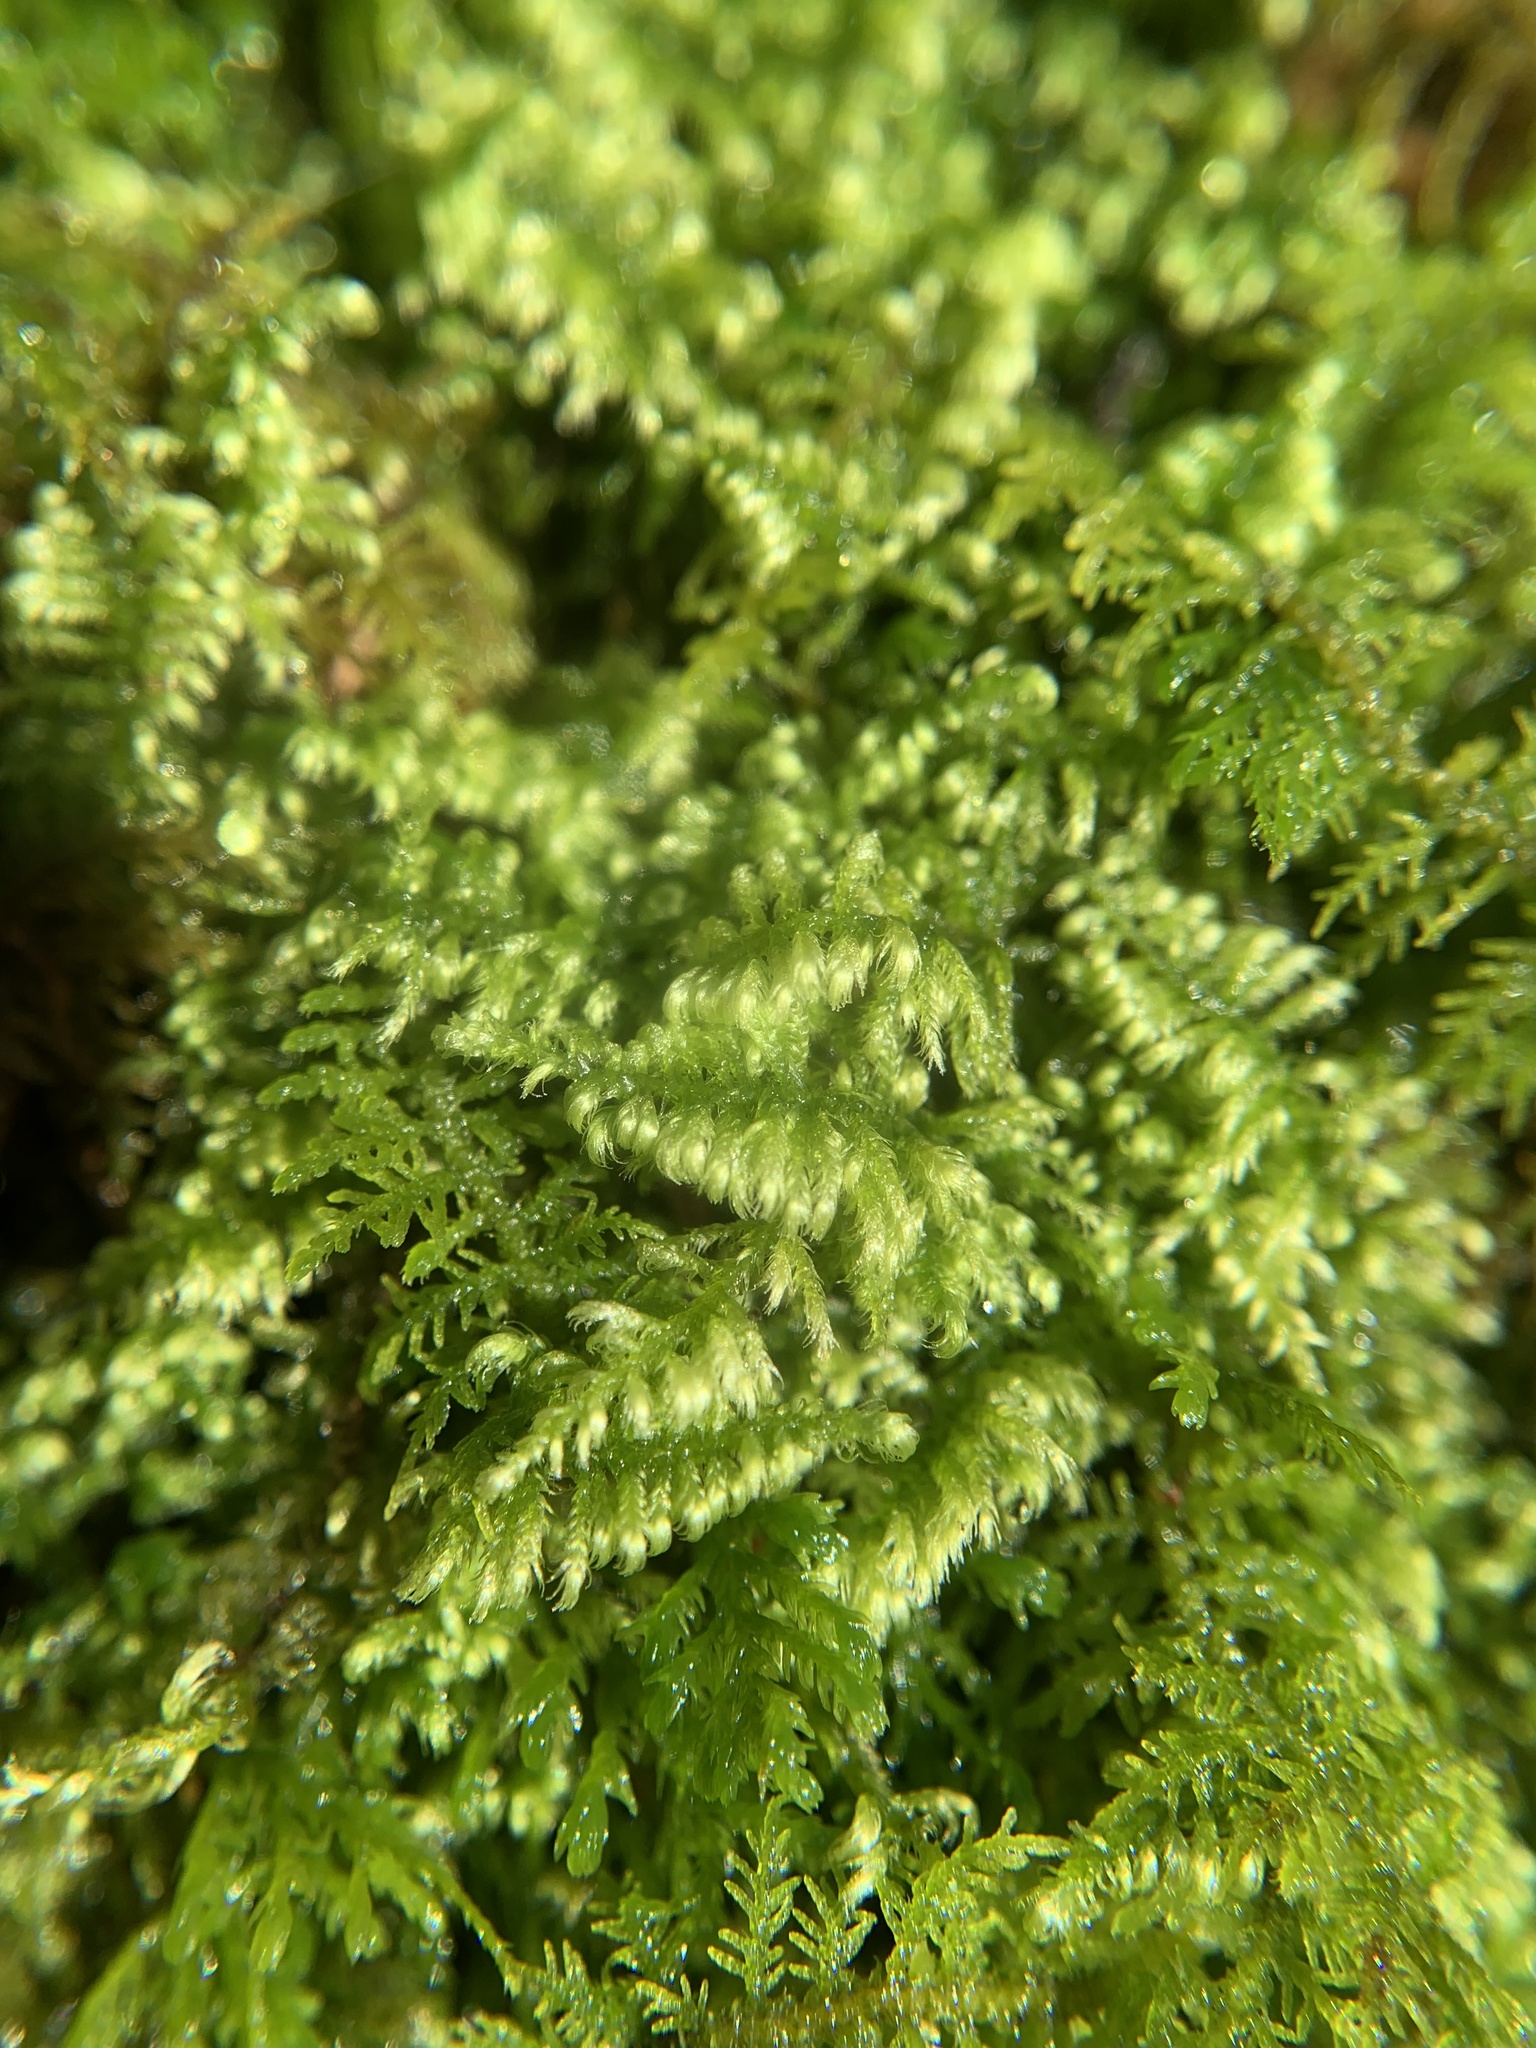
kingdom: Plantae
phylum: Bryophyta
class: Bryopsida
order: Hypnales
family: Myuriaceae
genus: Ctenidium
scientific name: Ctenidium molluscum
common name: Chalk comb-moss
